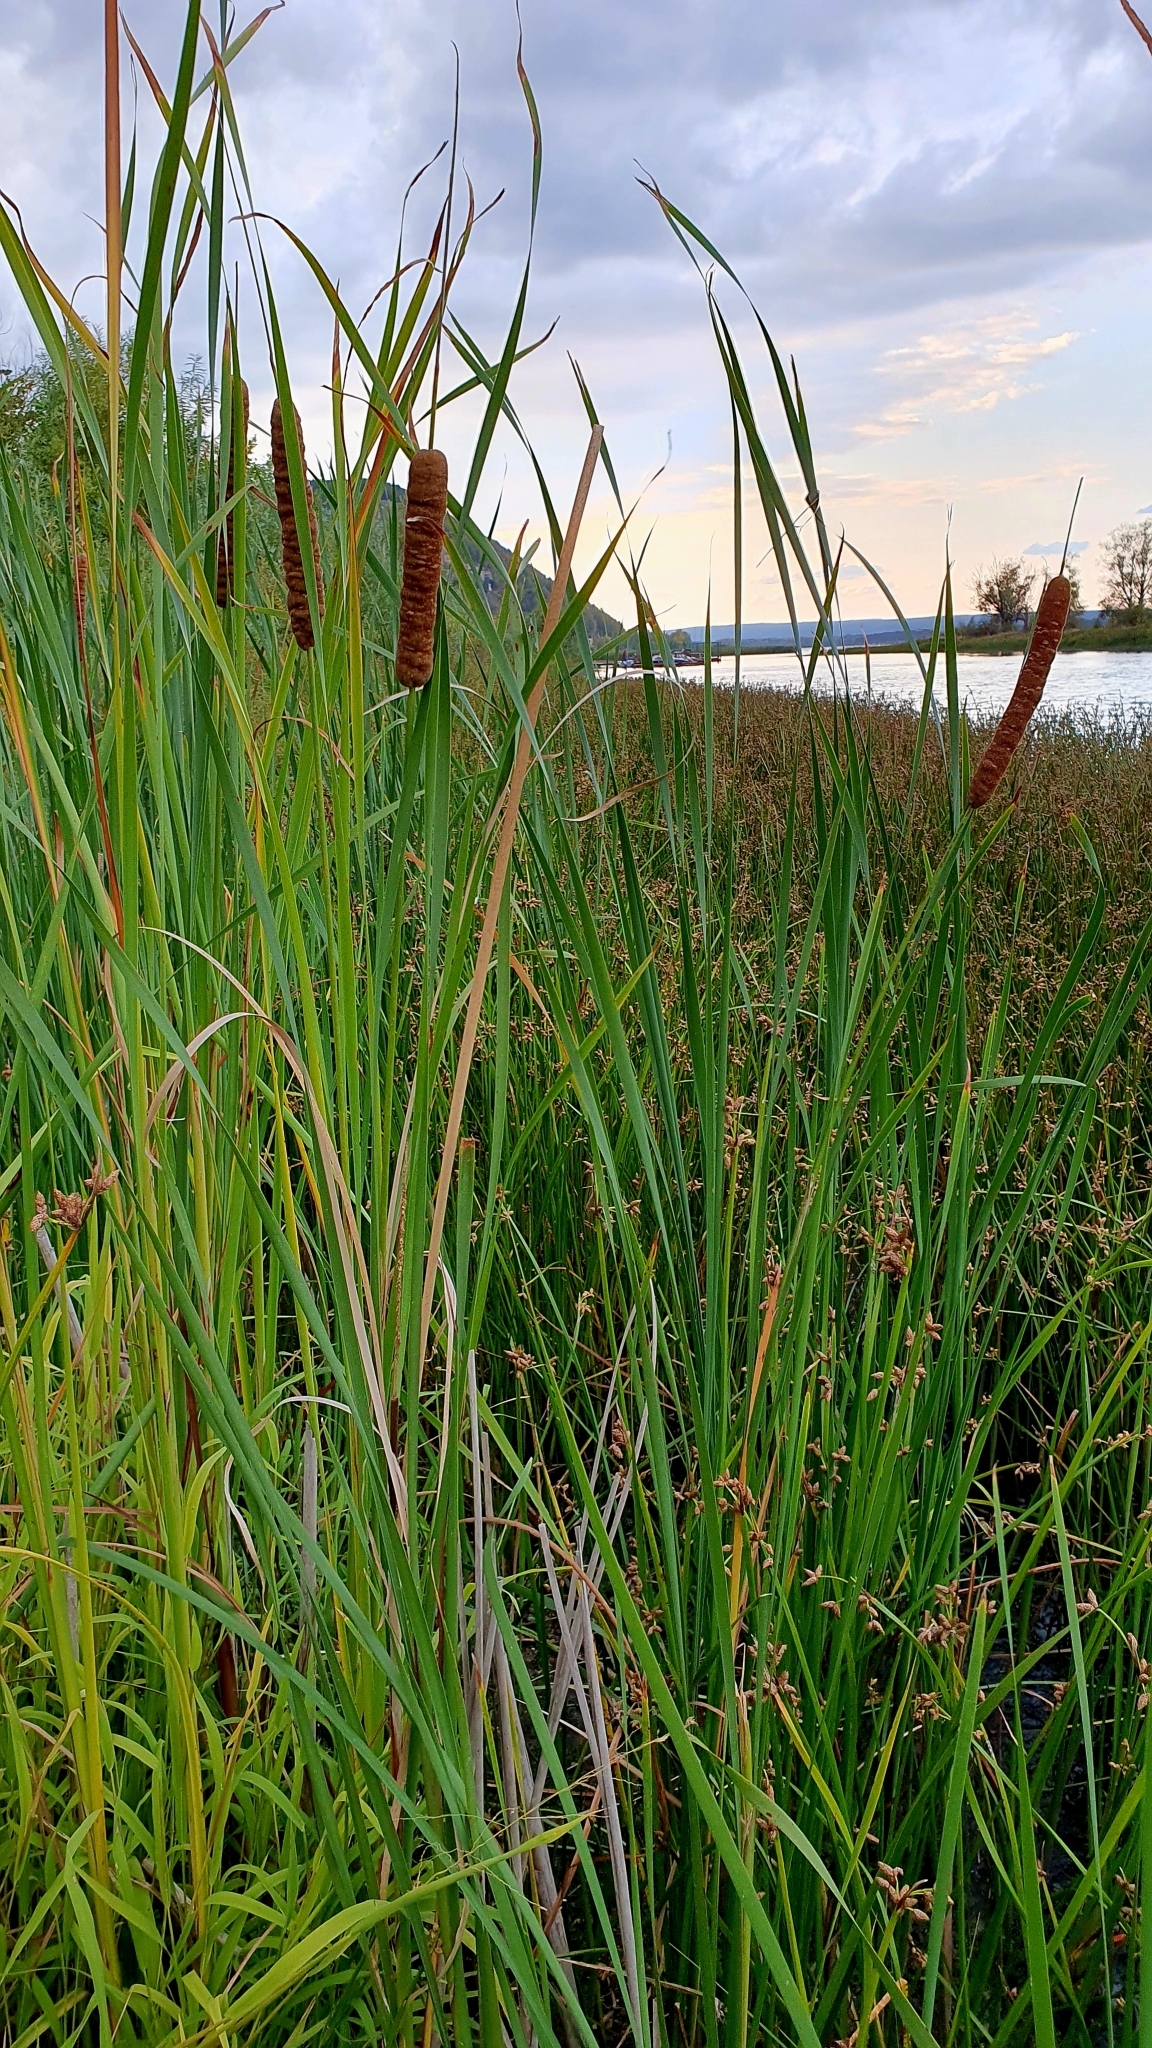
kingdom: Plantae
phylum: Tracheophyta
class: Liliopsida
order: Poales
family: Typhaceae
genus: Typha
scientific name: Typha angustifolia
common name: Lesser bulrush
